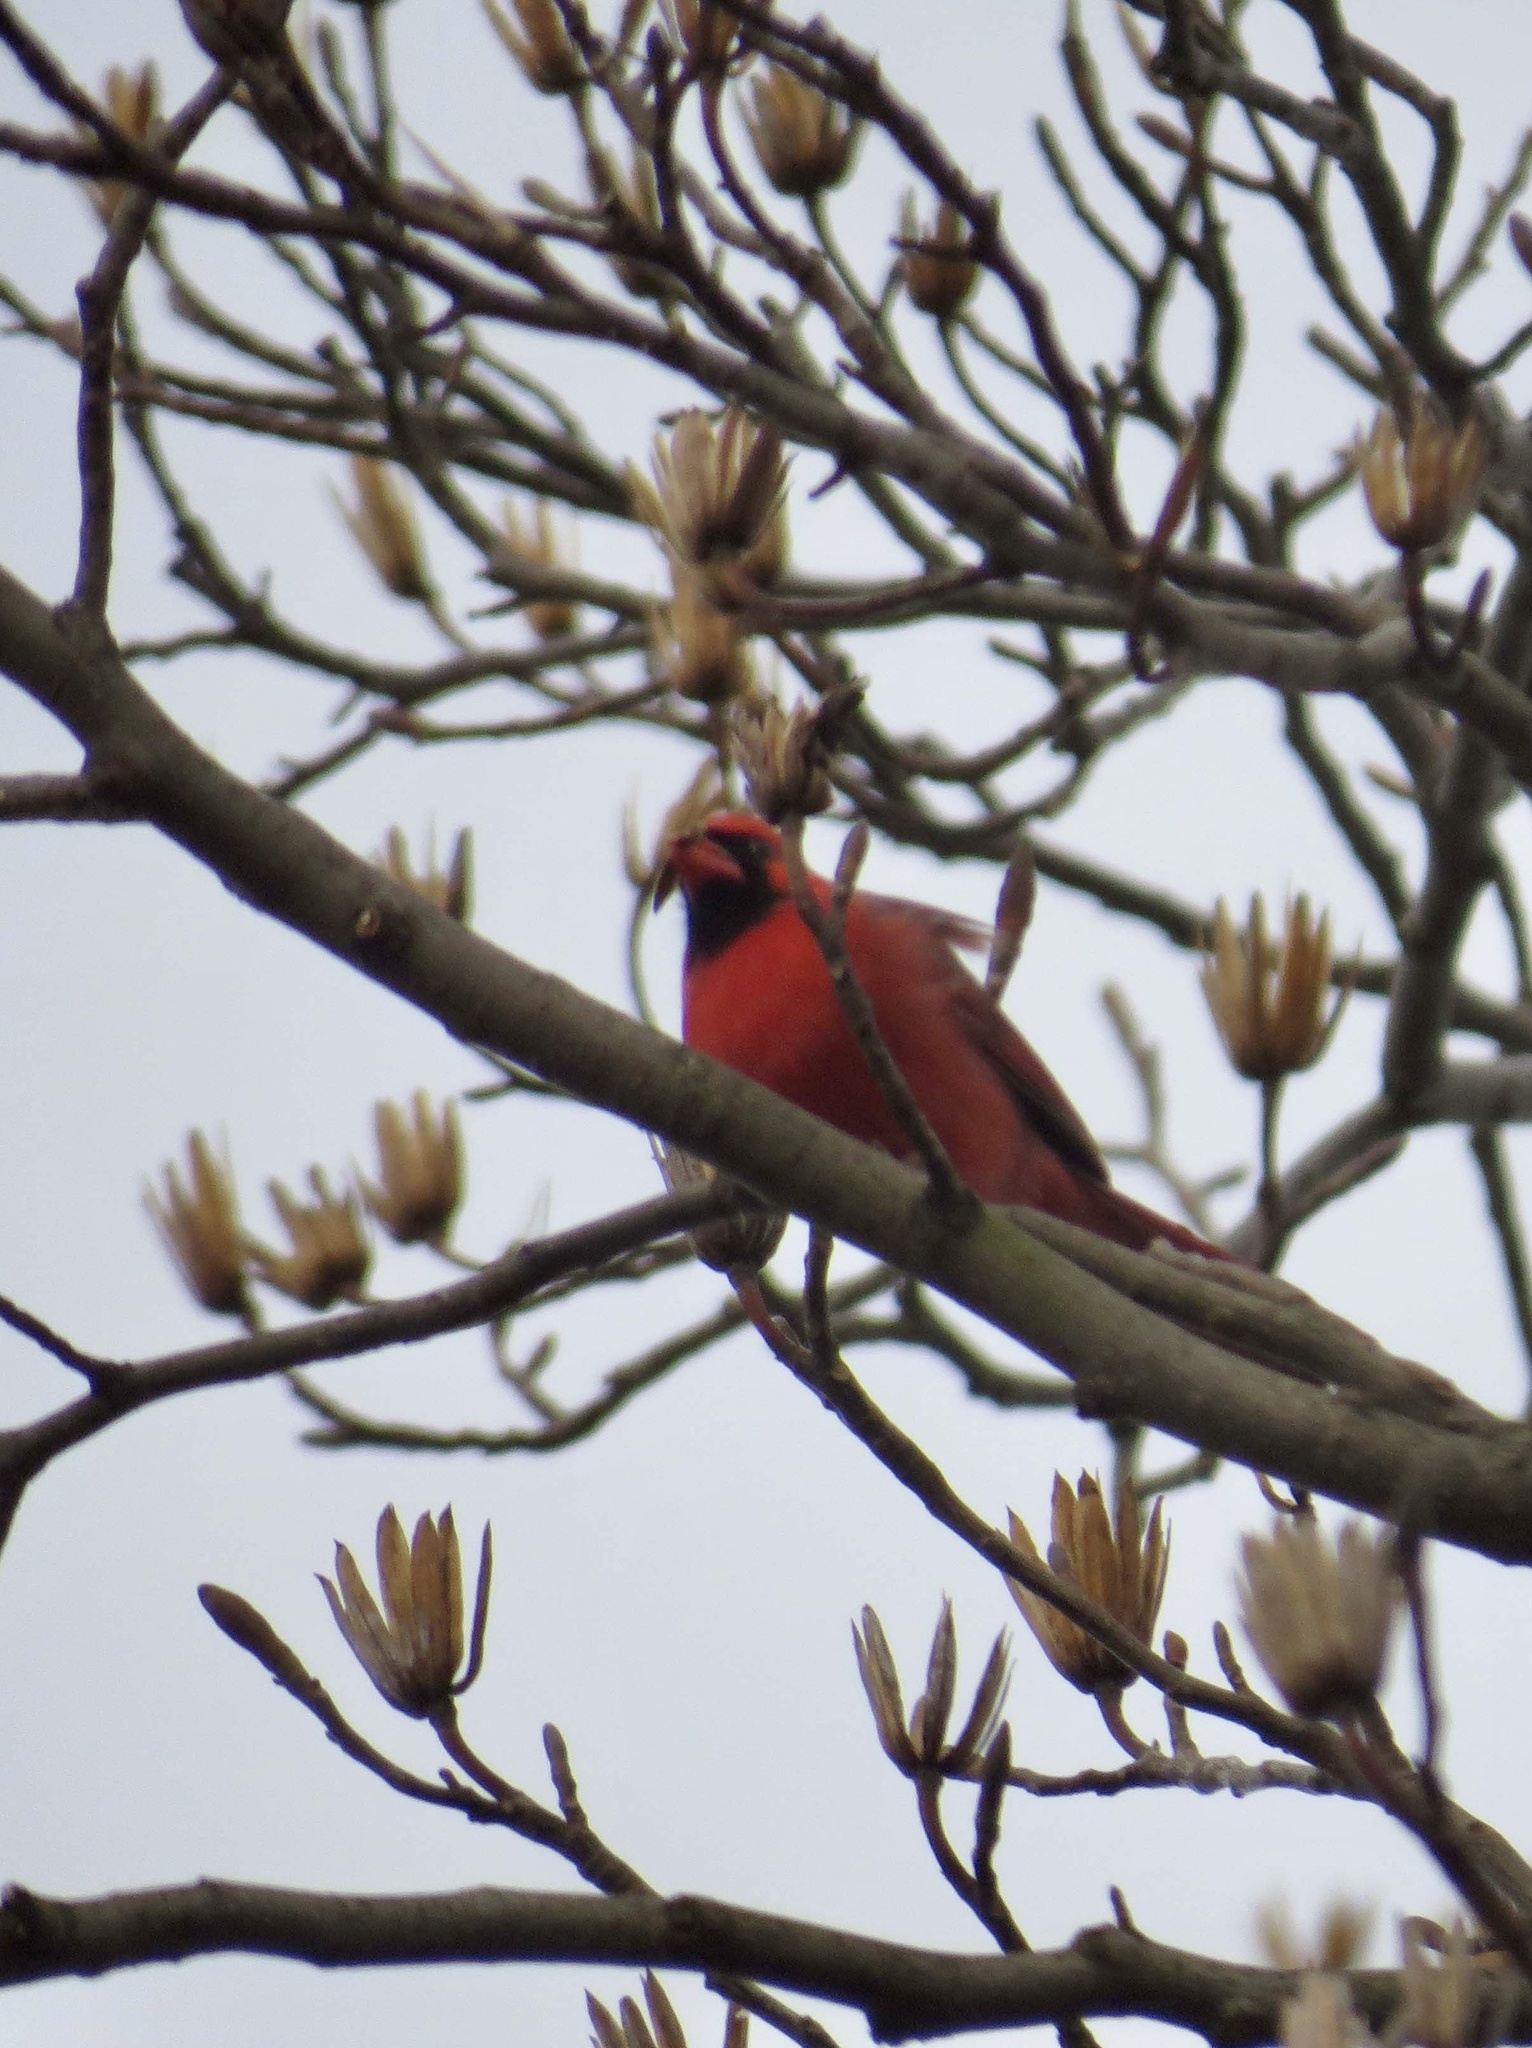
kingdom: Animalia
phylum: Chordata
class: Aves
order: Passeriformes
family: Cardinalidae
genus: Cardinalis
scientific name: Cardinalis cardinalis
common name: Northern cardinal
